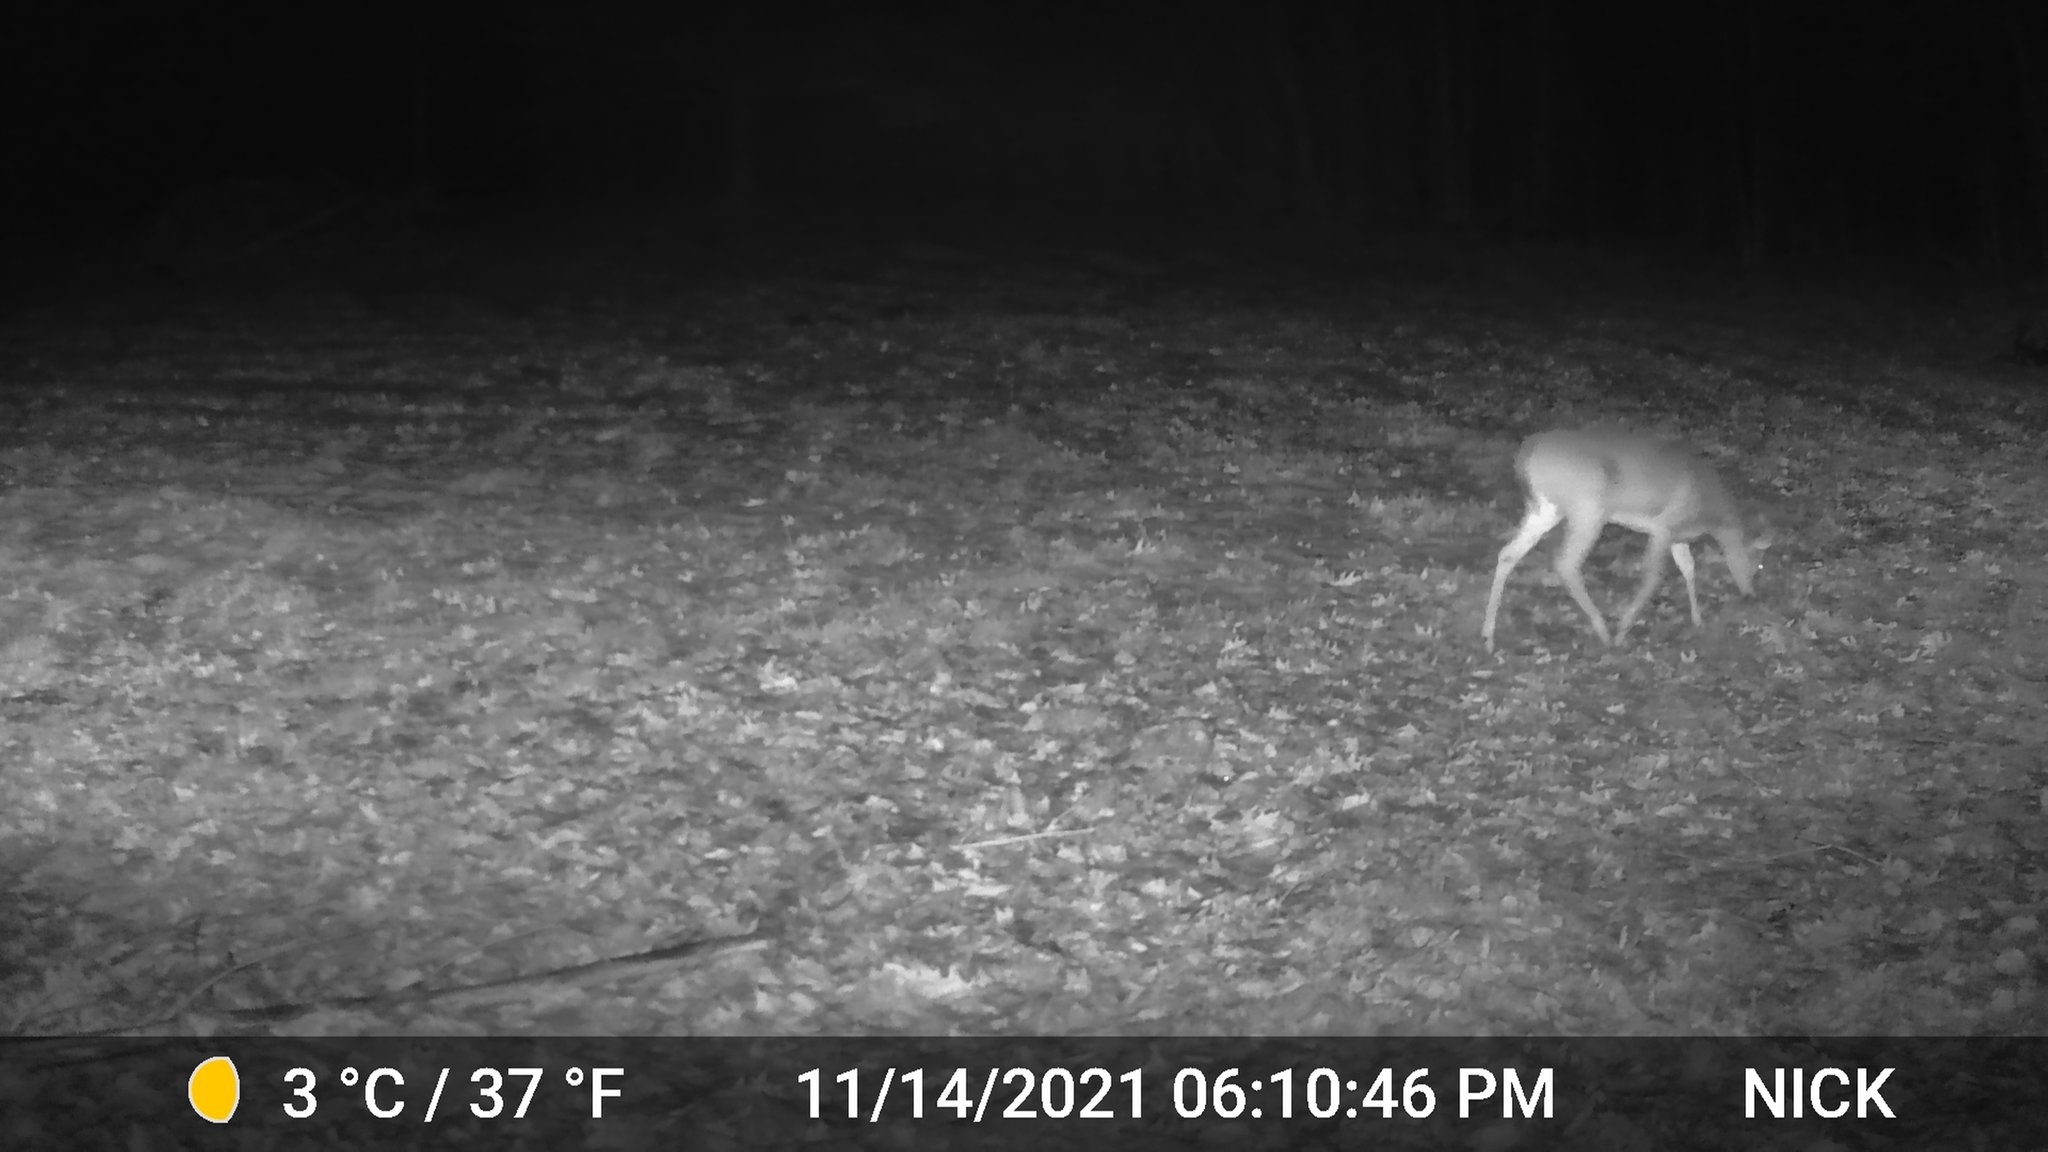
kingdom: Animalia
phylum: Chordata
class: Mammalia
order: Artiodactyla
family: Cervidae
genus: Odocoileus
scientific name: Odocoileus virginianus
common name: White-tailed deer
